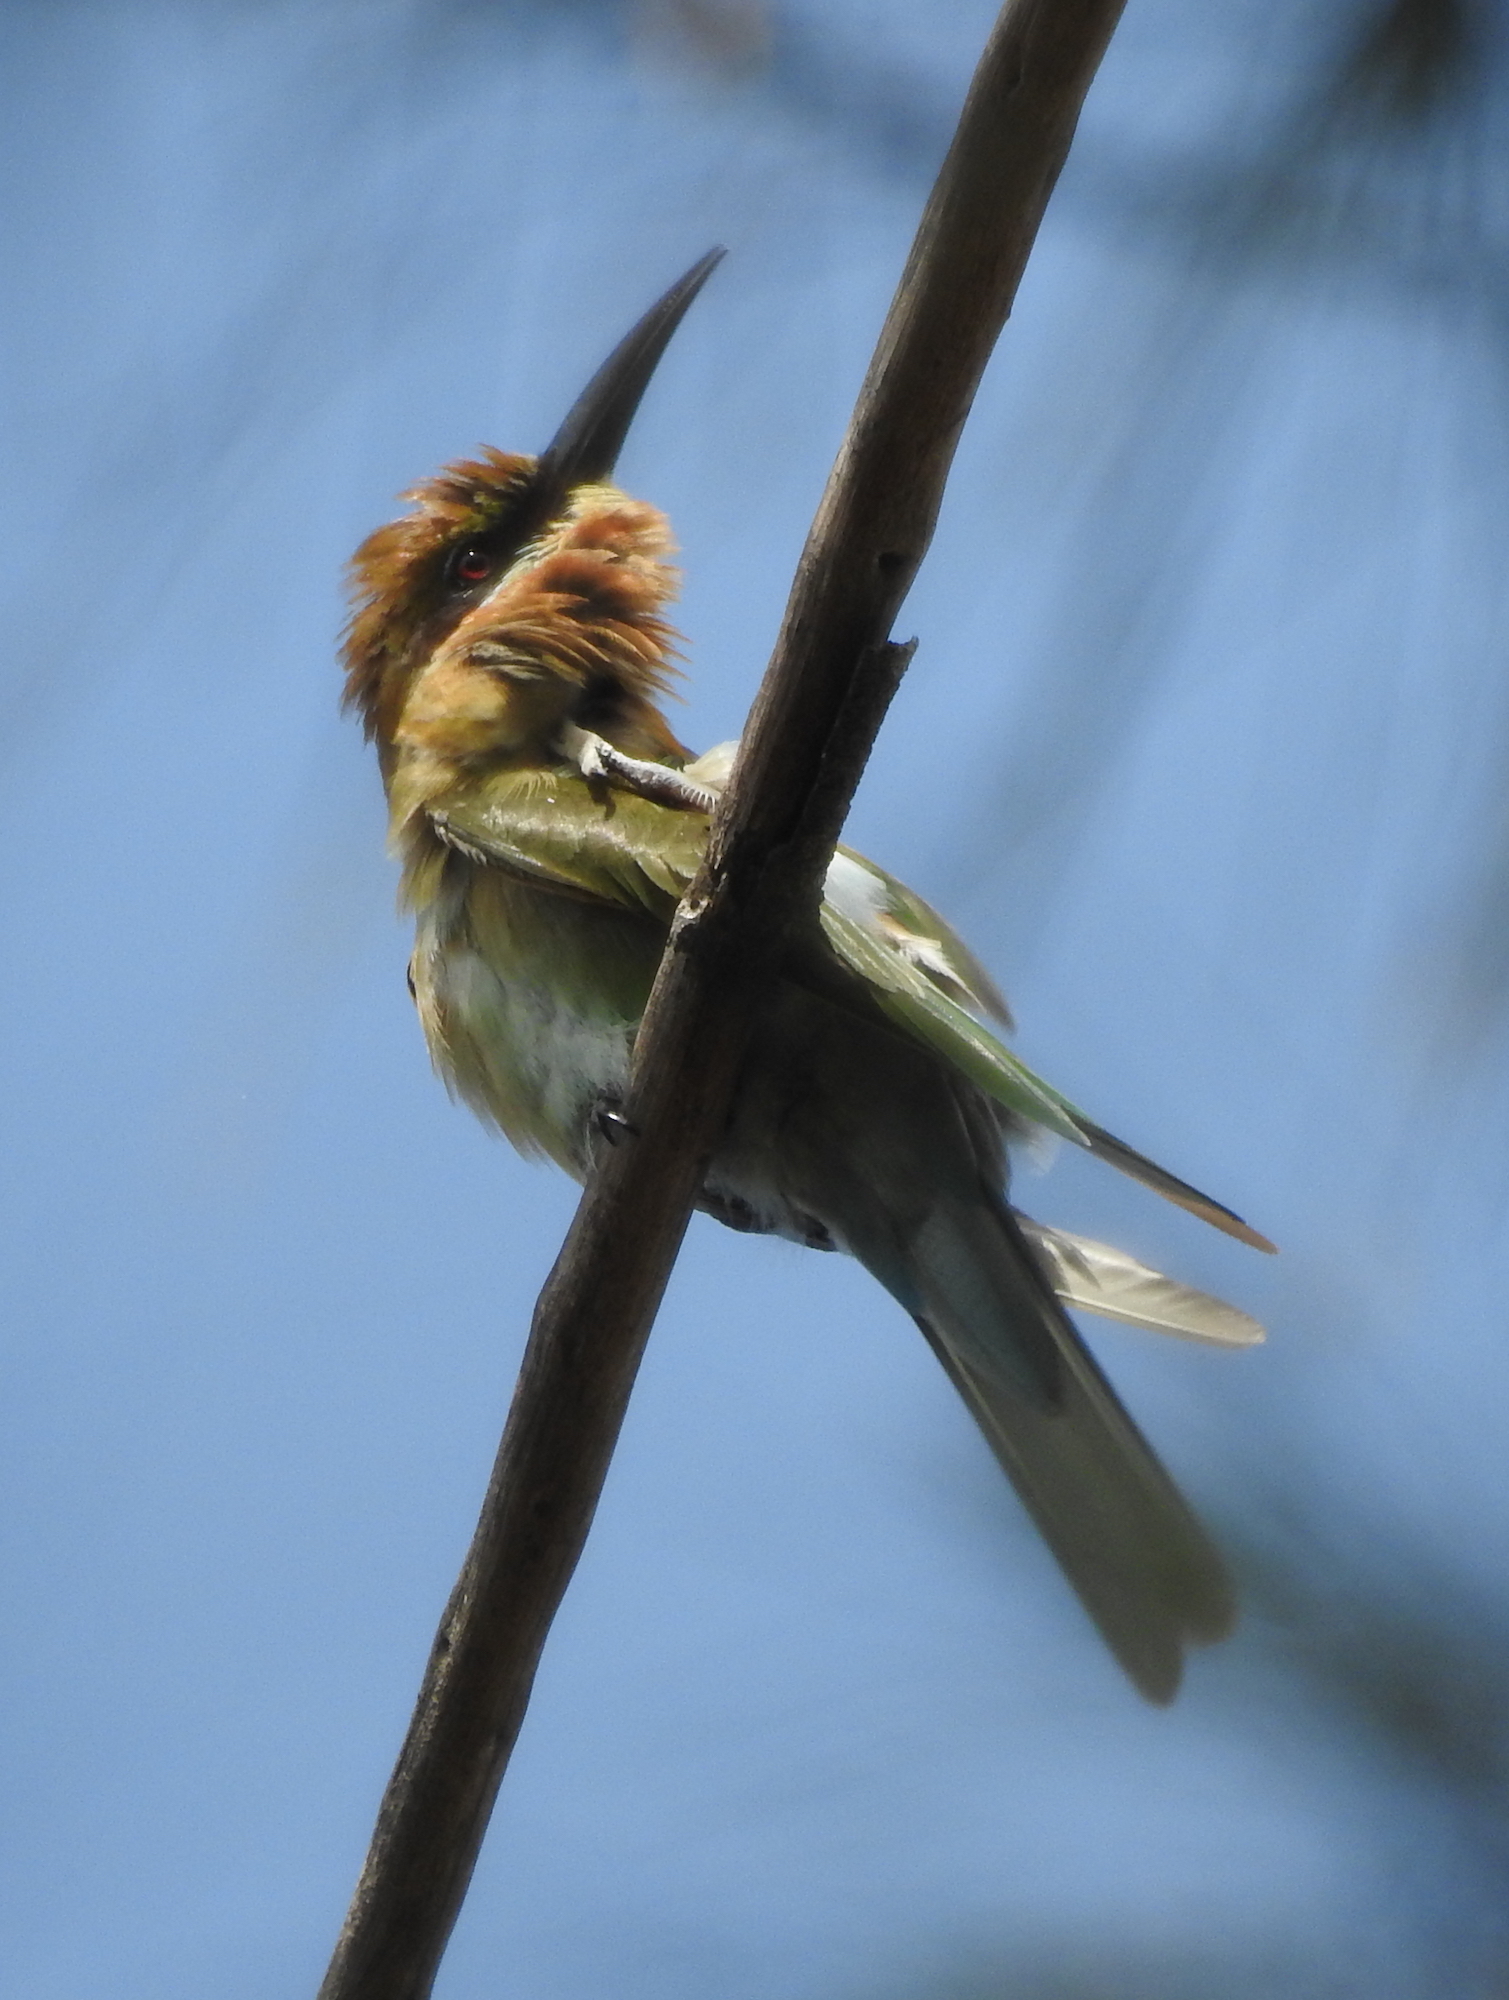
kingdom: Animalia
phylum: Chordata
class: Aves
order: Coraciiformes
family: Meropidae
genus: Merops
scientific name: Merops philippinus
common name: Blue-tailed bee-eater
